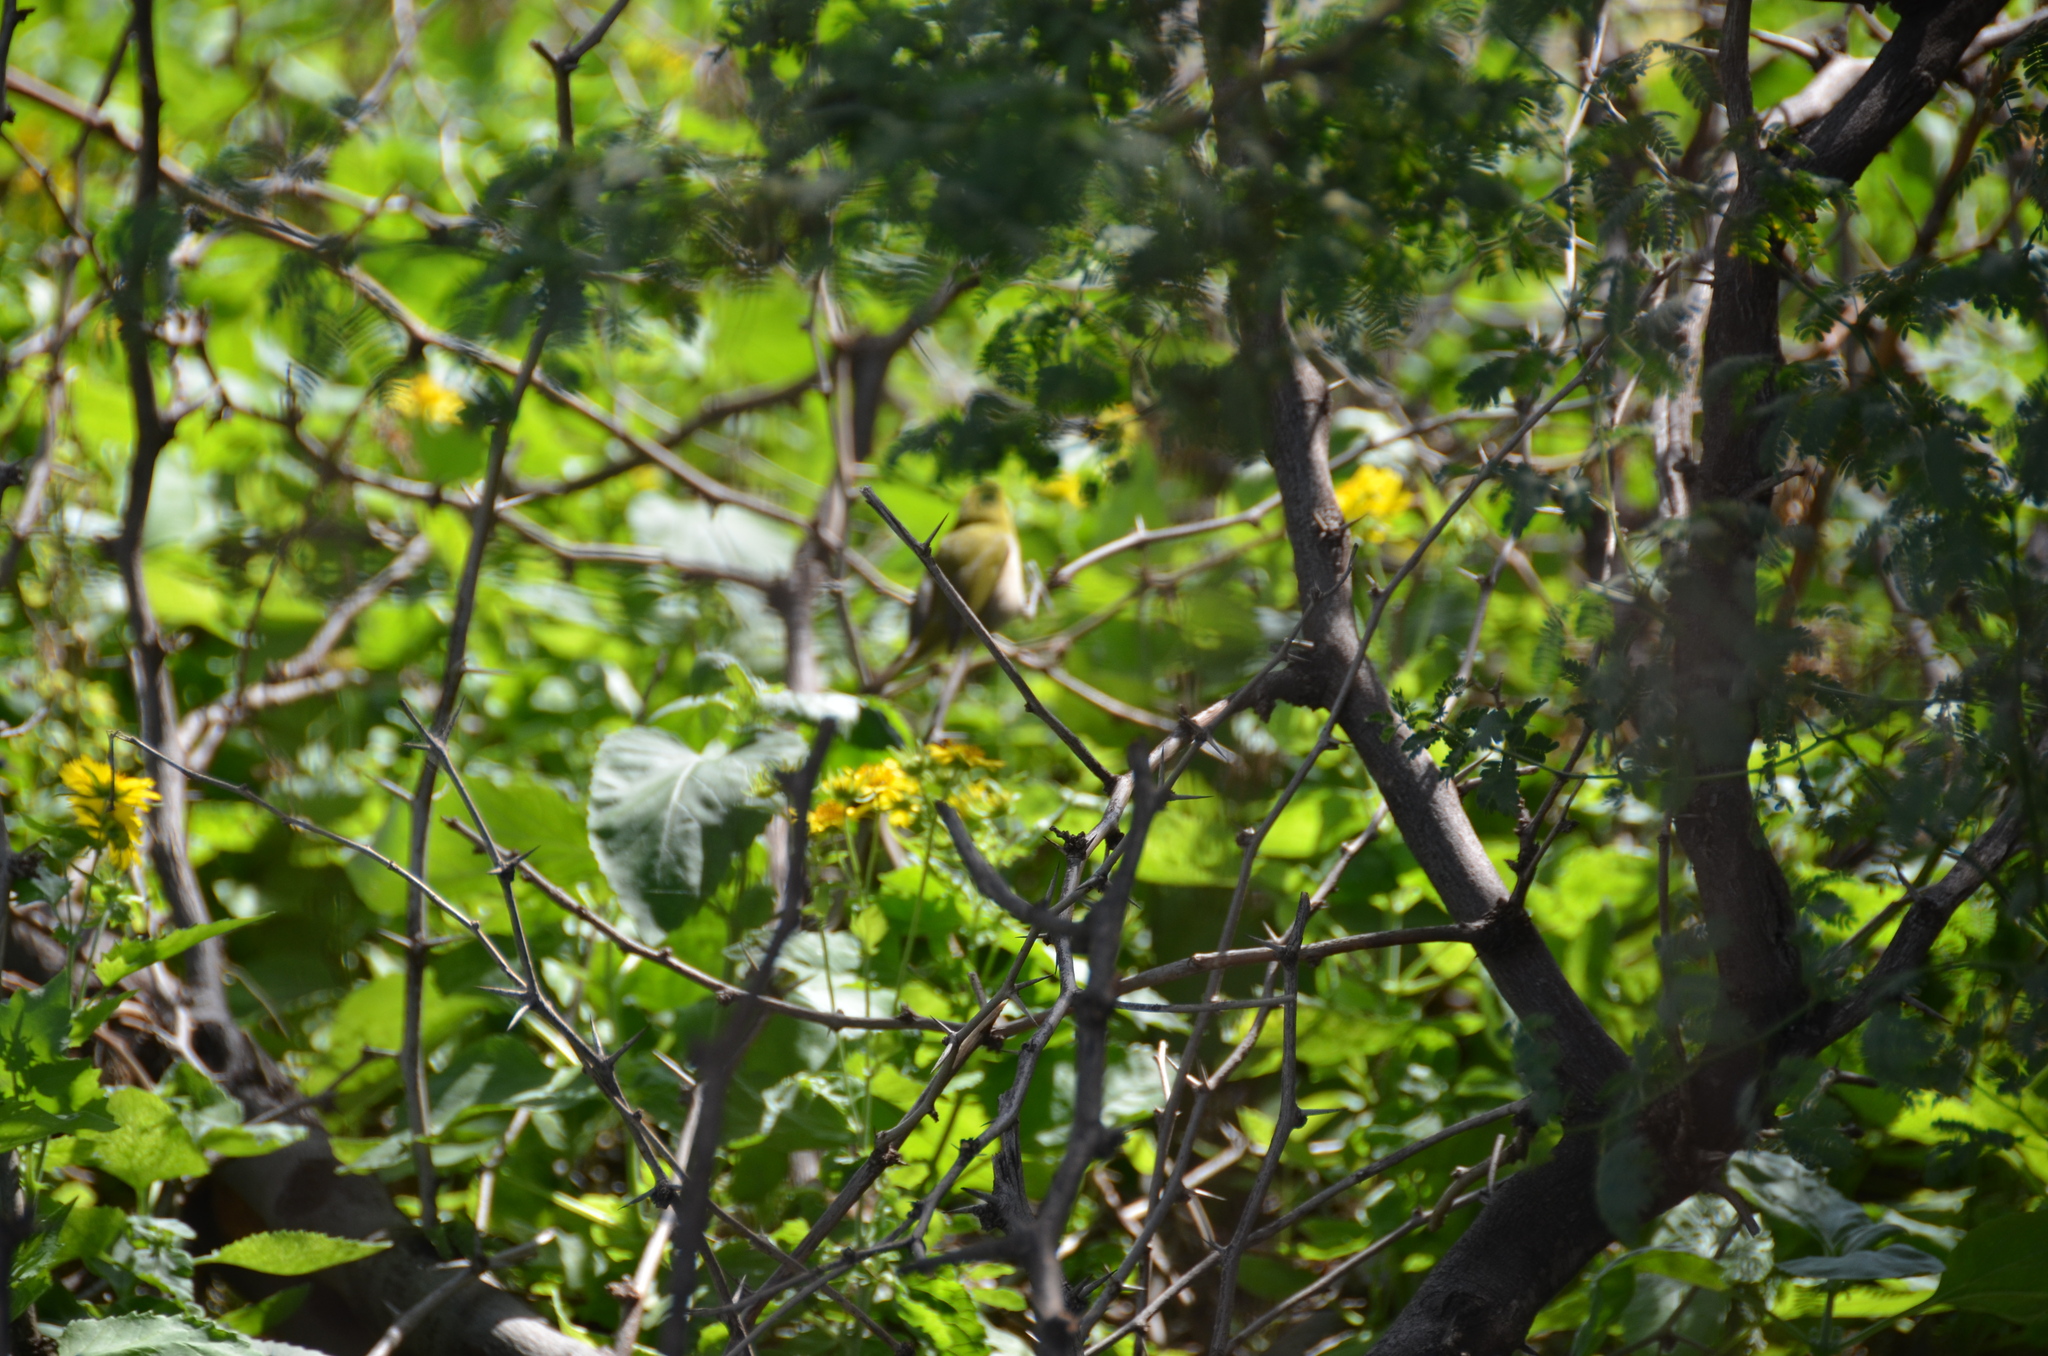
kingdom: Animalia
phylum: Chordata
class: Aves
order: Passeriformes
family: Zosteropidae
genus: Zosterops
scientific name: Zosterops japonicus
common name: Japanese white-eye
